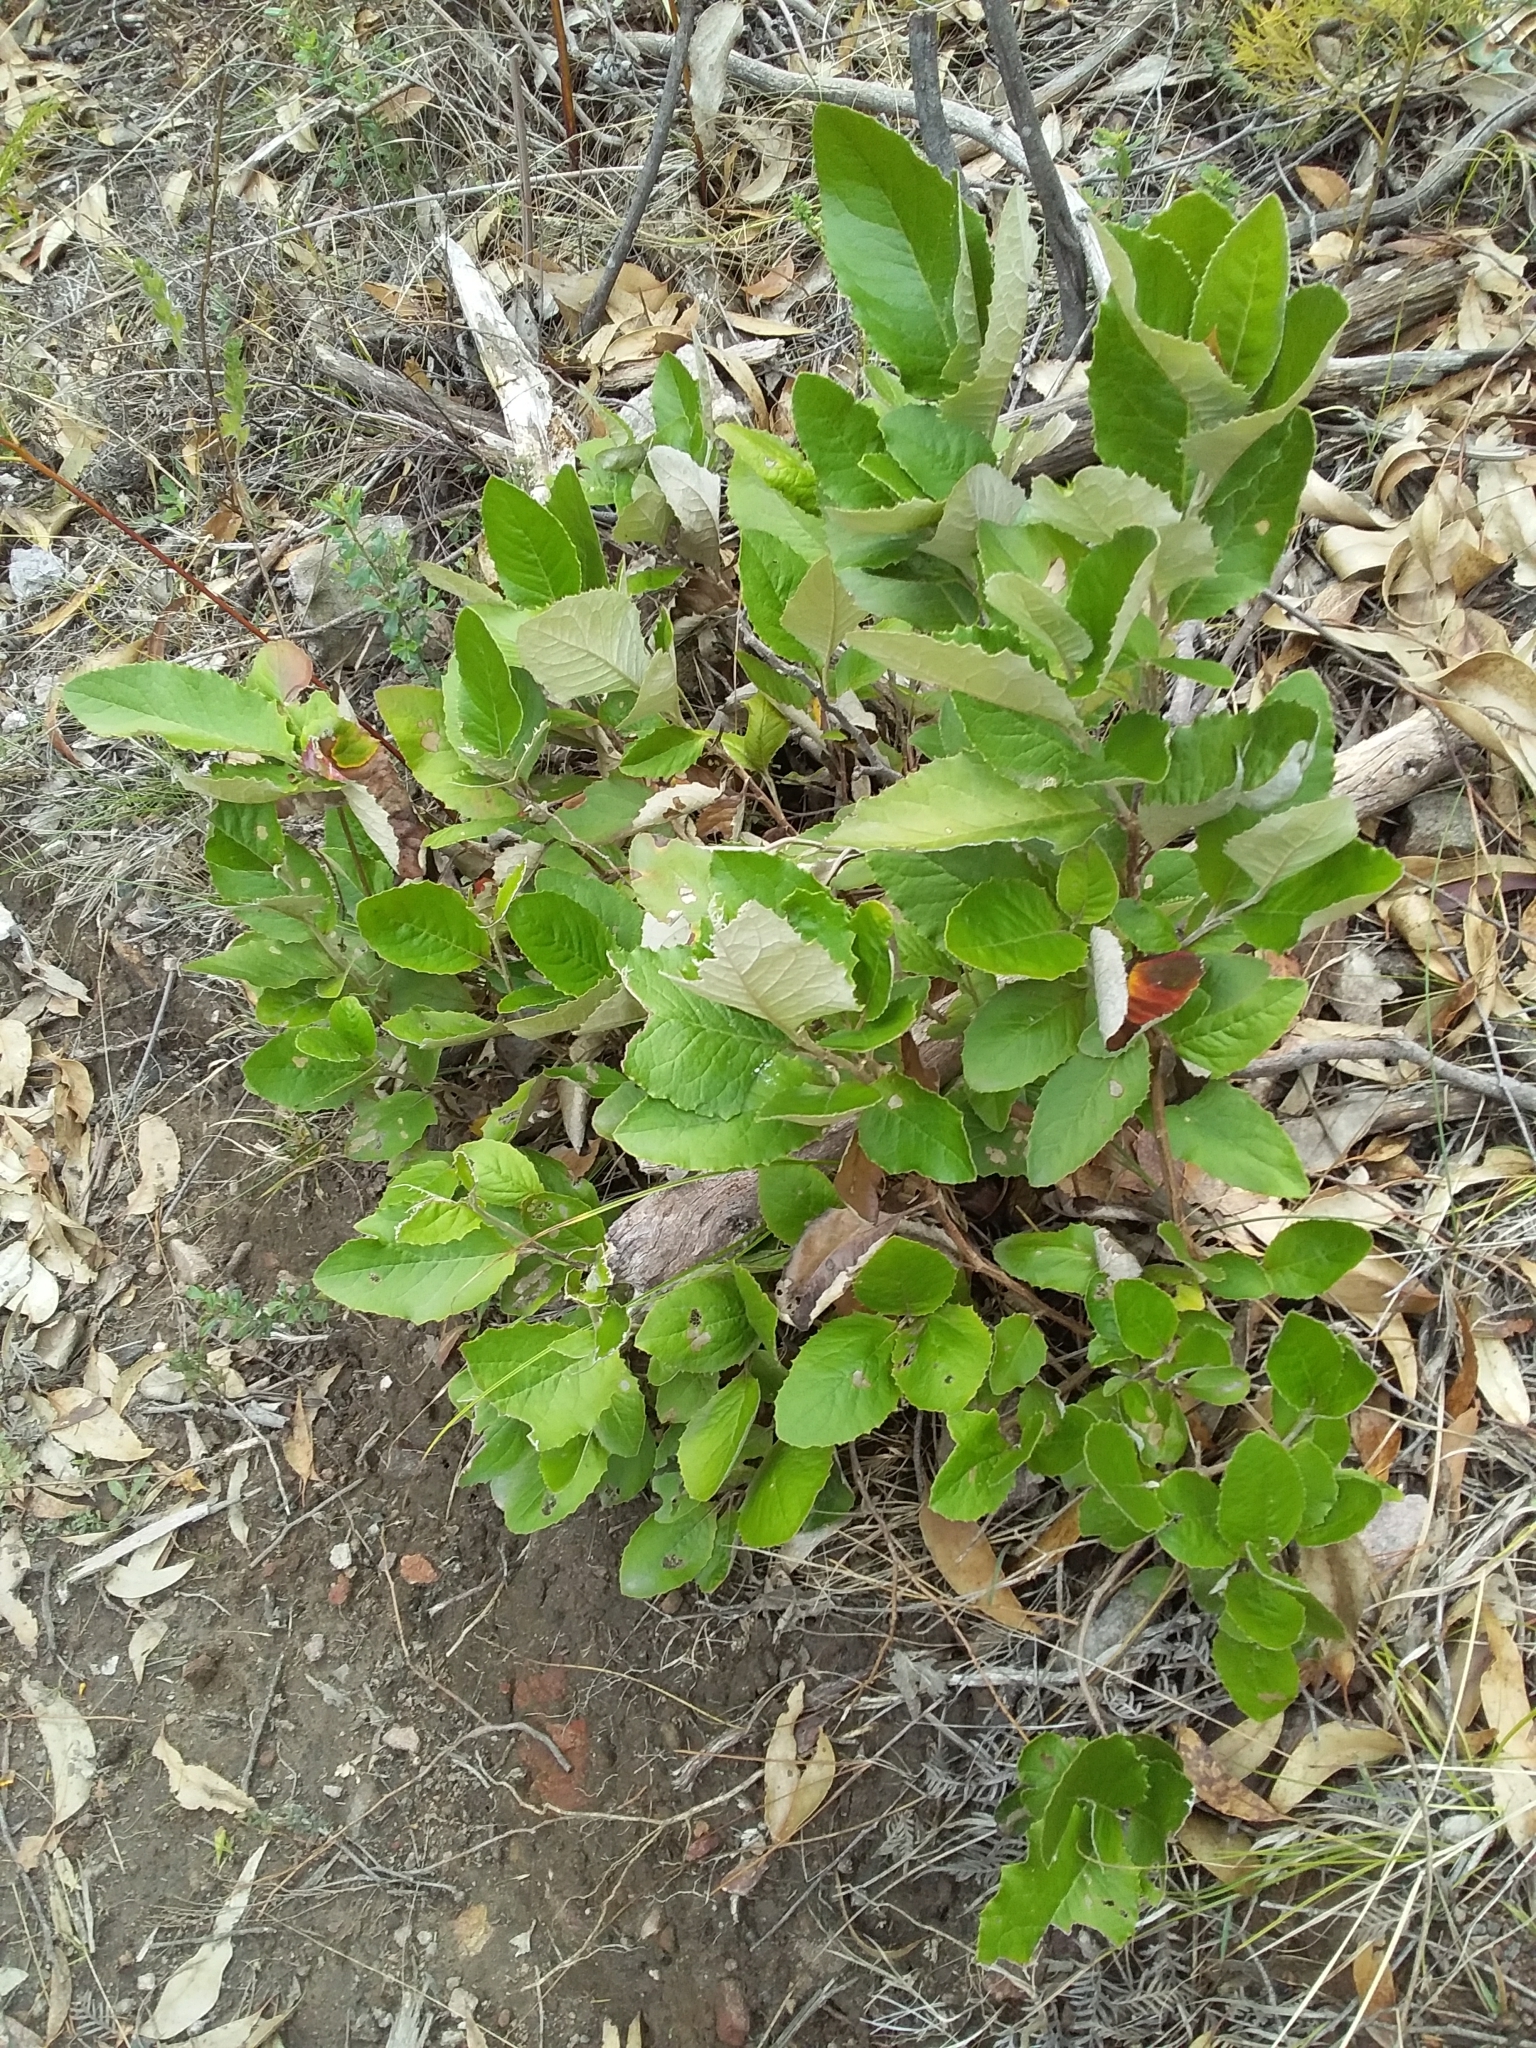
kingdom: Plantae
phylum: Tracheophyta
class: Magnoliopsida
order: Asterales
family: Asteraceae
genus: Olearia
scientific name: Olearia grandiflora
